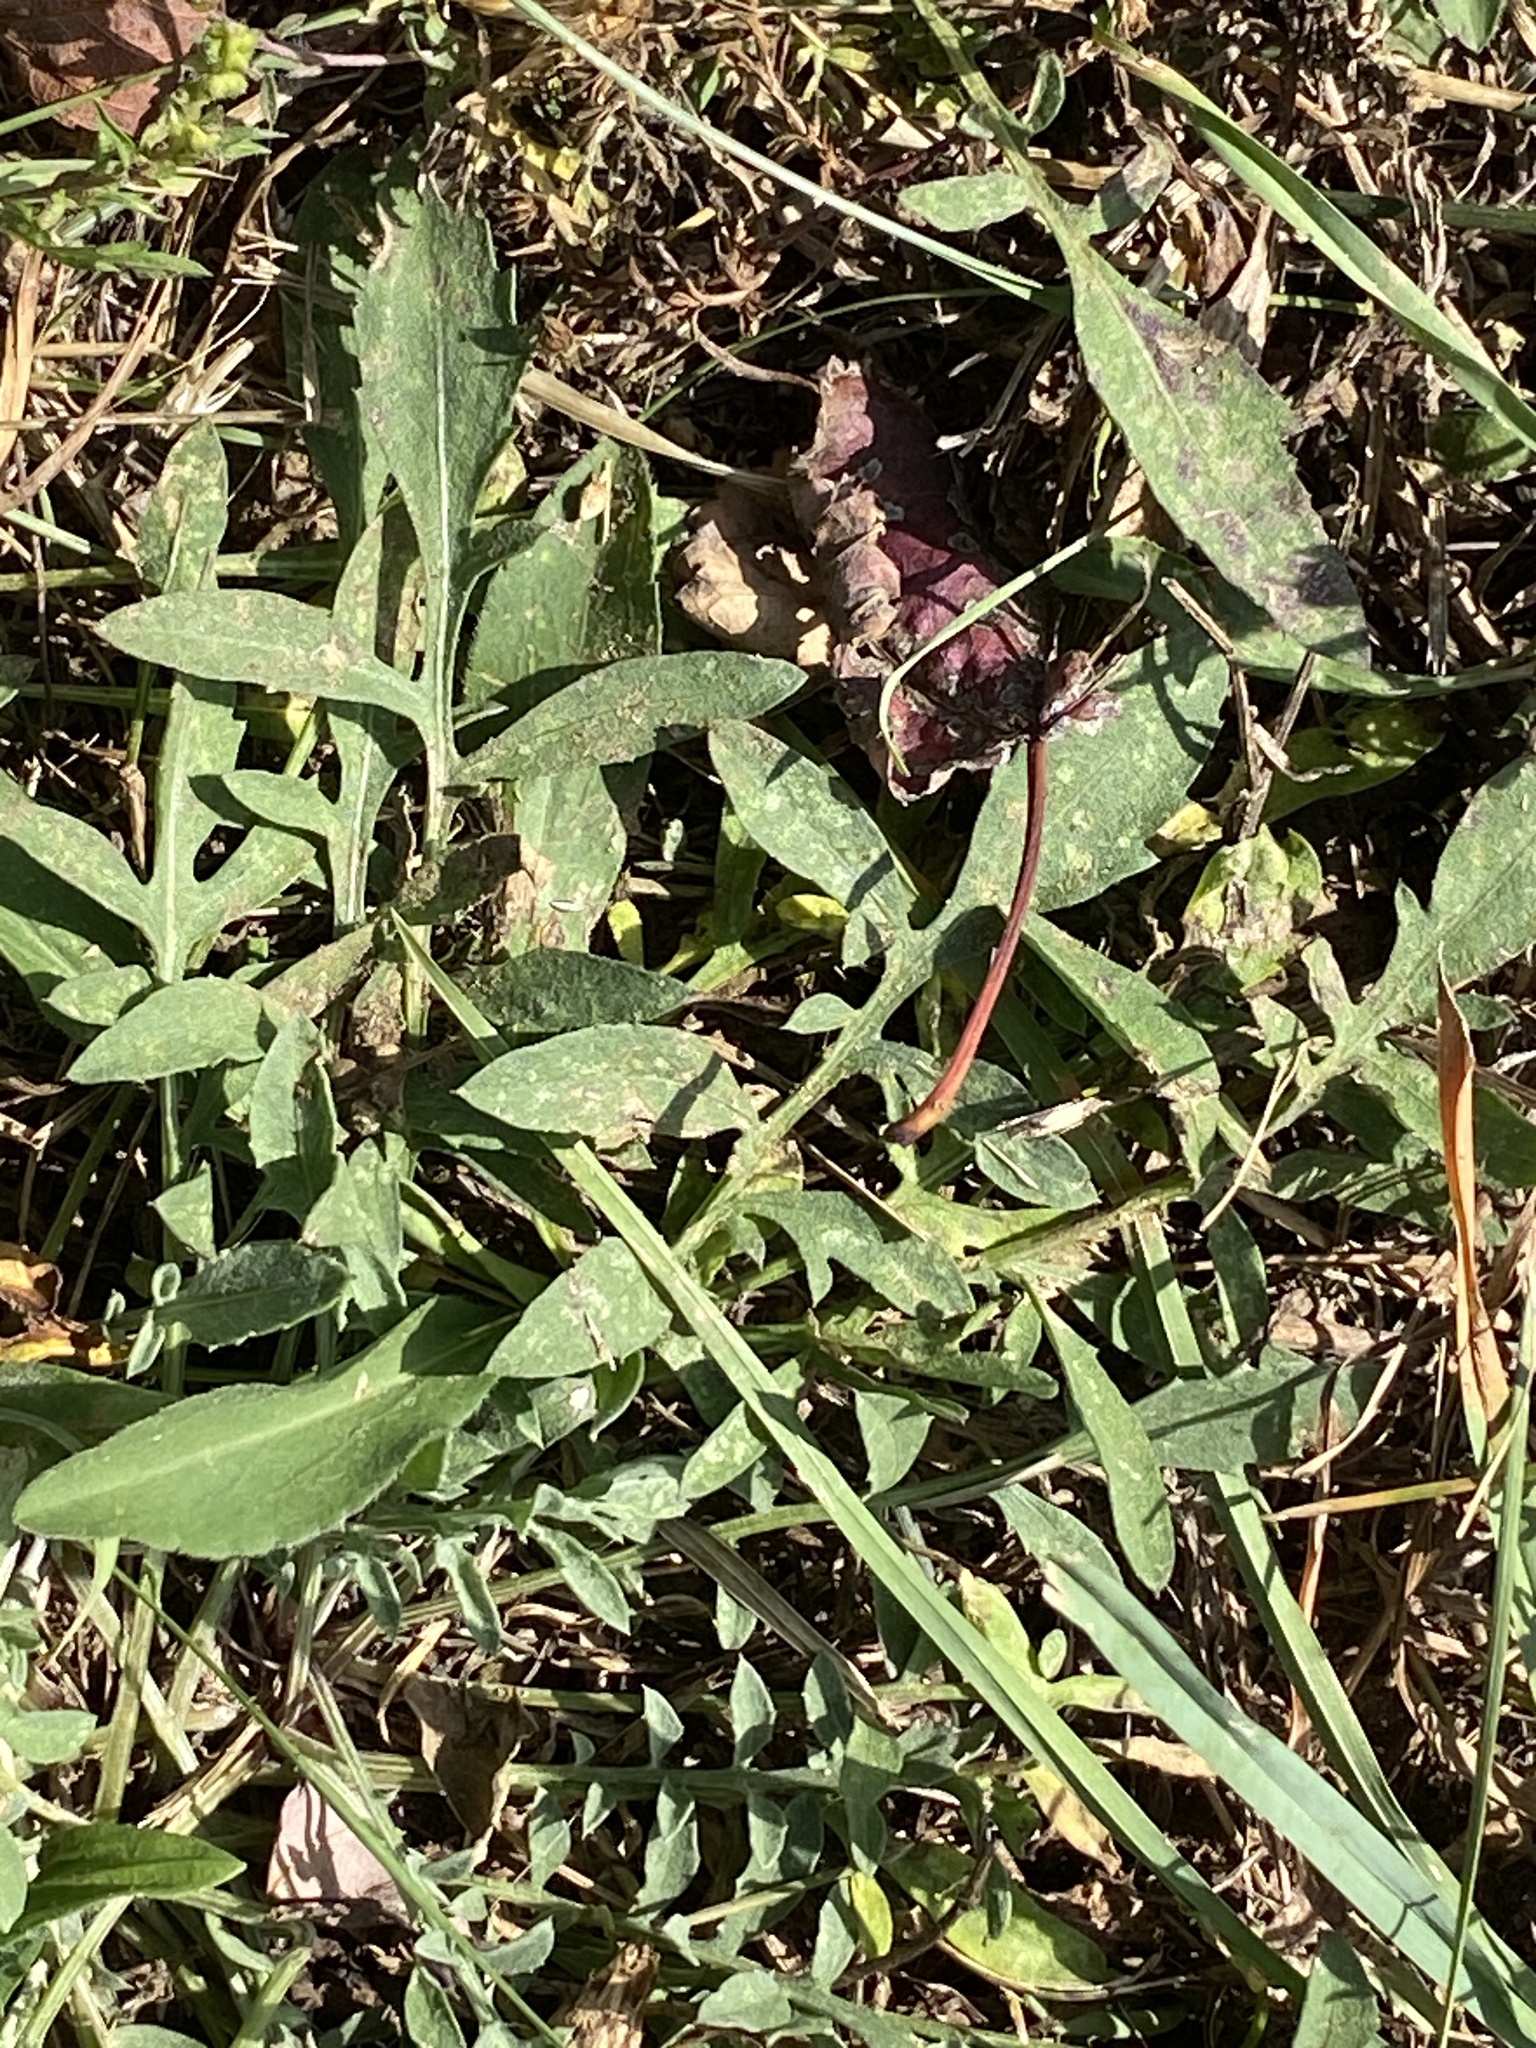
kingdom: Plantae
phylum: Tracheophyta
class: Magnoliopsida
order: Asterales
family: Asteraceae
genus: Centaurea
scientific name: Centaurea stoebe
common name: Spotted knapweed
